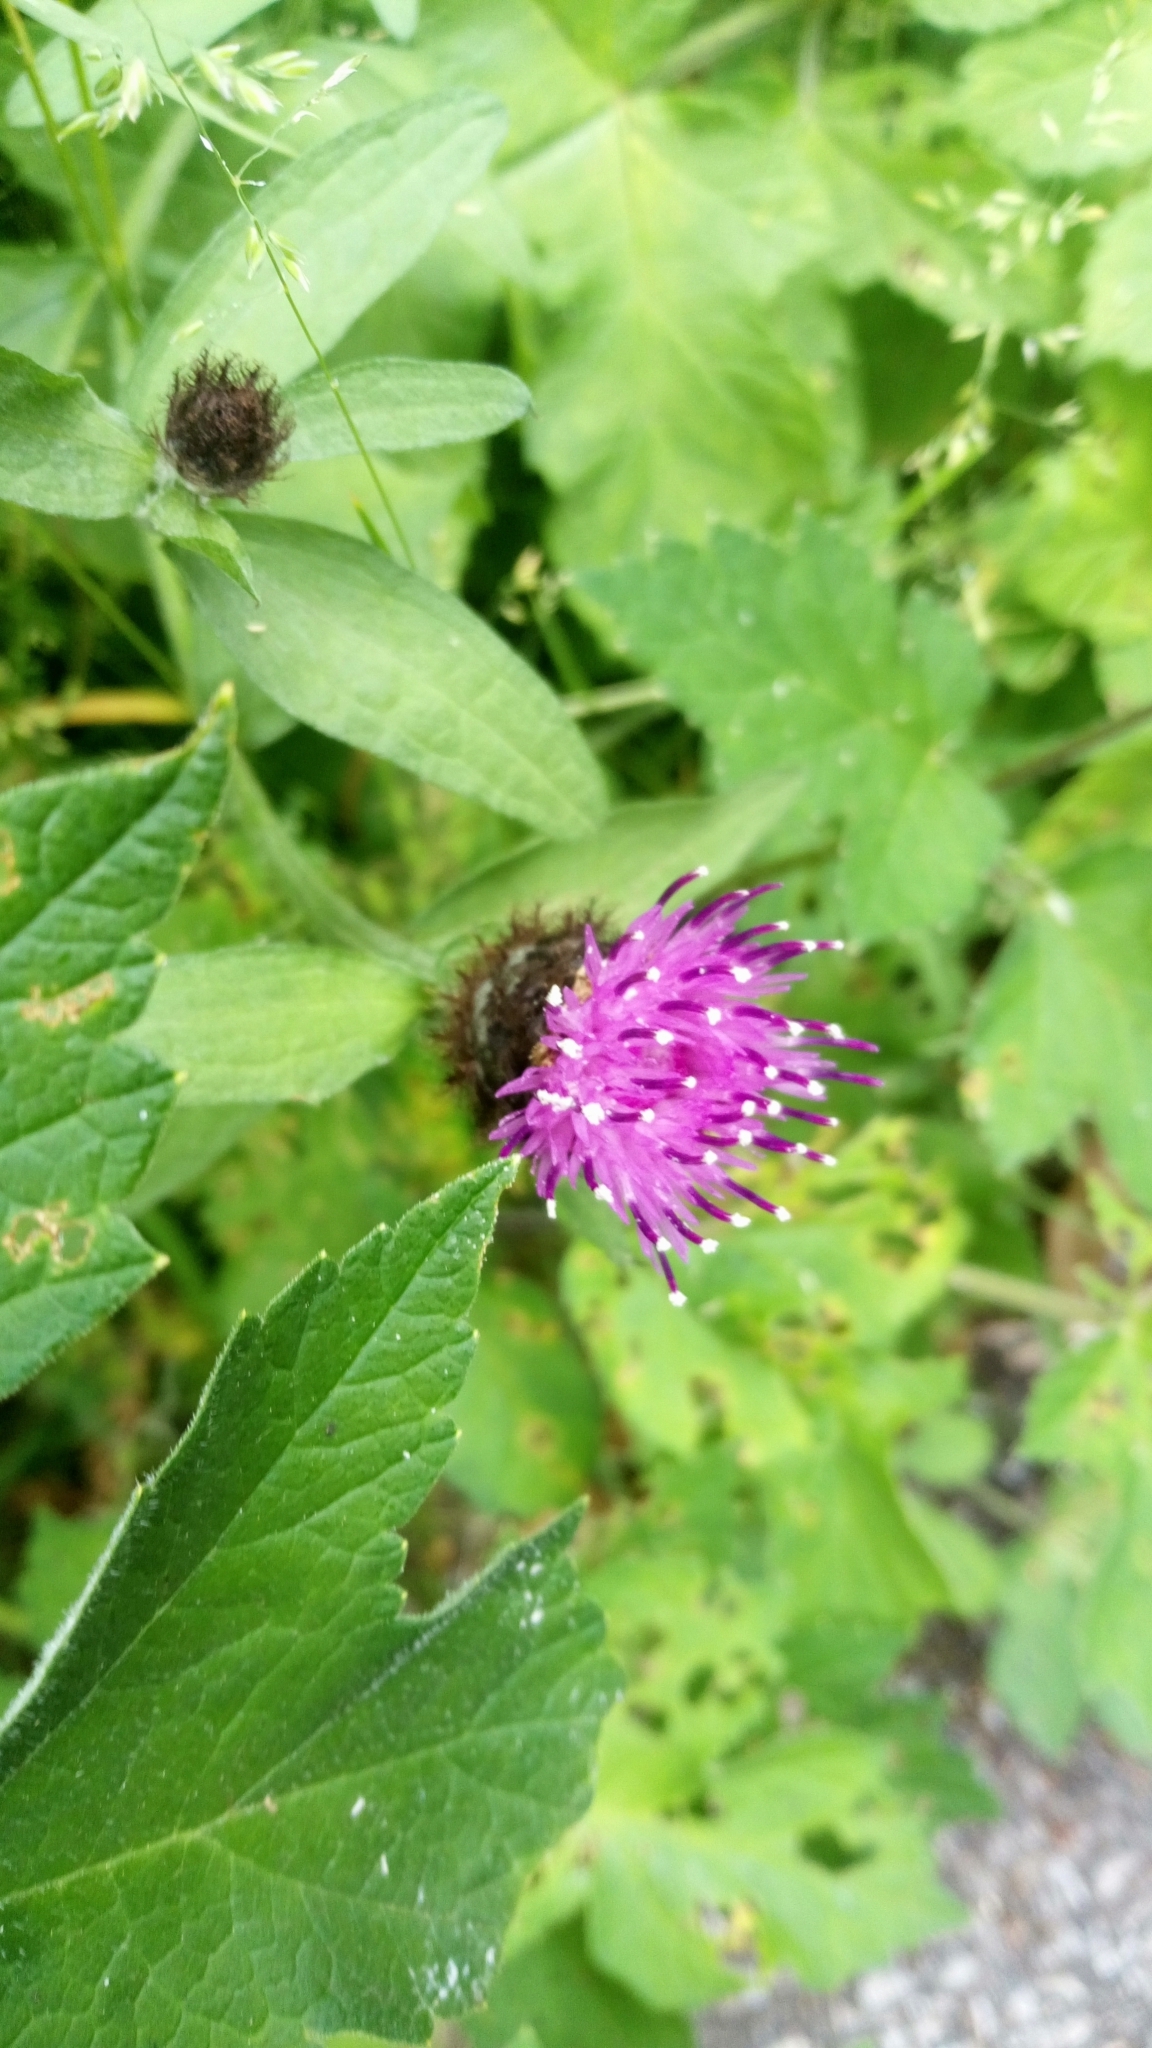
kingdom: Plantae
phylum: Tracheophyta
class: Magnoliopsida
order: Asterales
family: Asteraceae
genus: Centaurea
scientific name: Centaurea nigra
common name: Lesser knapweed
